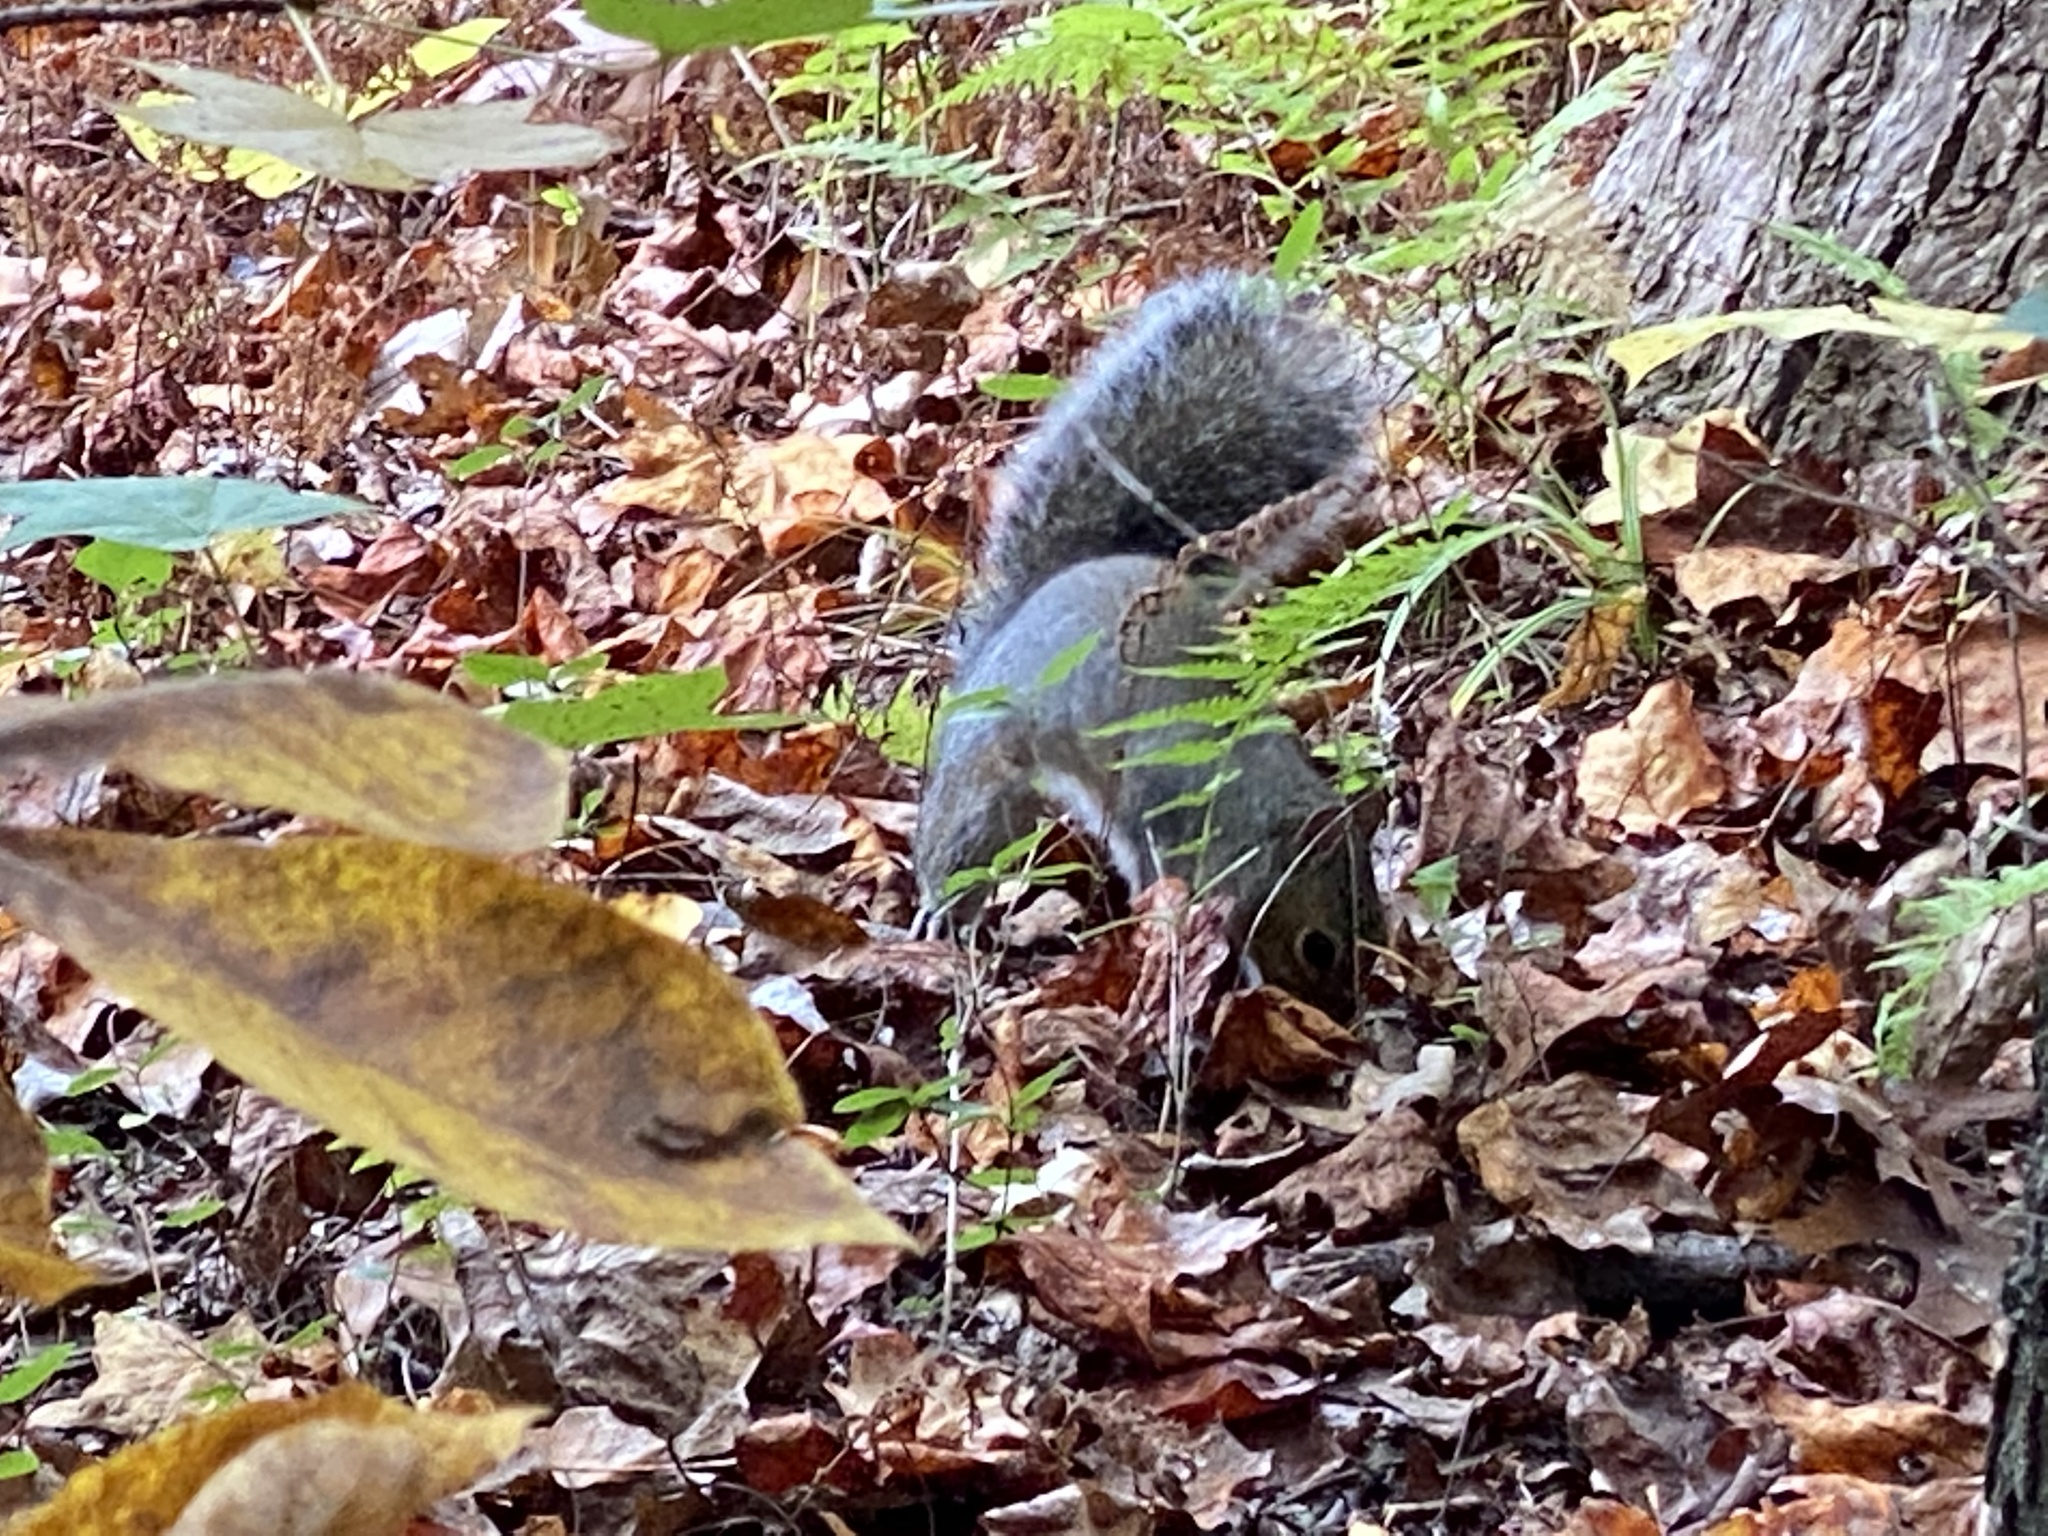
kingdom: Animalia
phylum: Chordata
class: Mammalia
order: Rodentia
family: Sciuridae
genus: Sciurus
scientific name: Sciurus carolinensis
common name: Eastern gray squirrel
